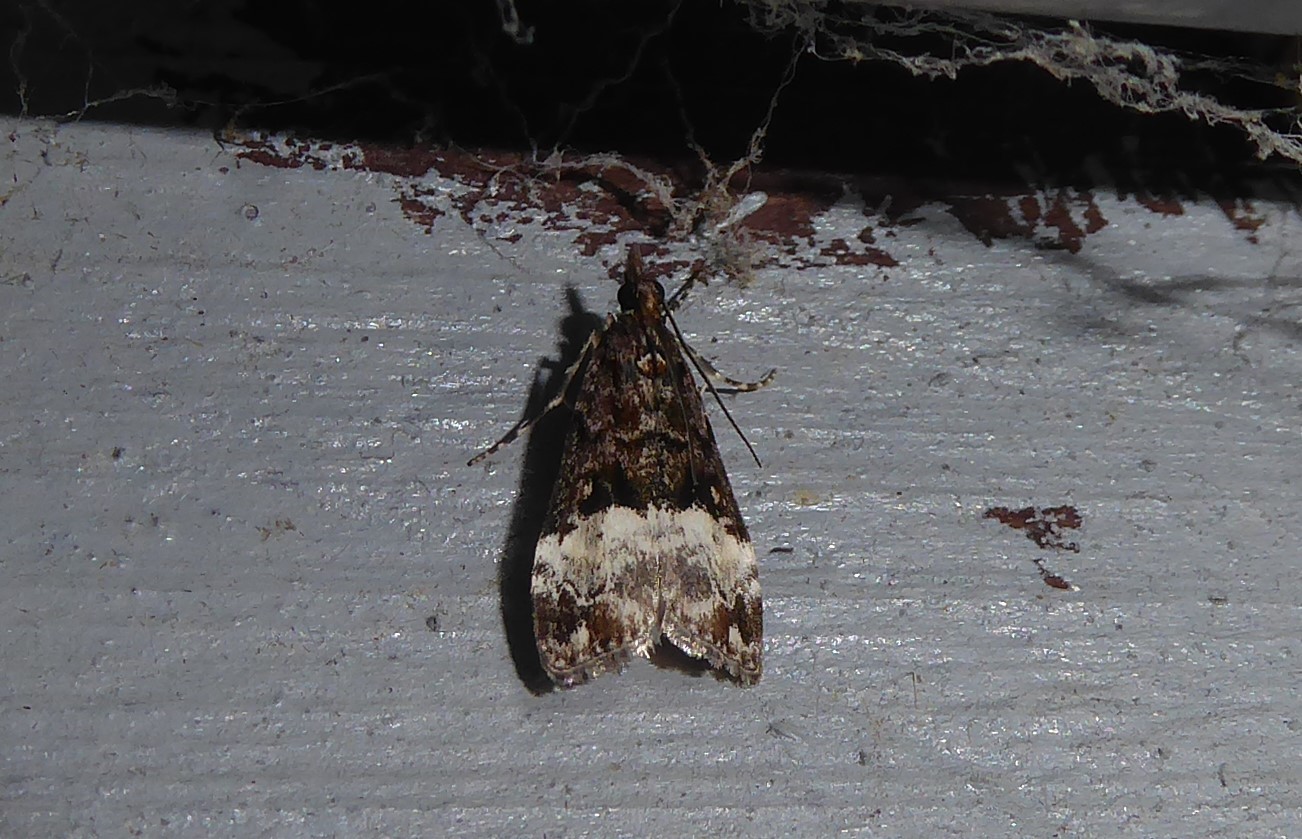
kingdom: Animalia
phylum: Arthropoda
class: Insecta
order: Lepidoptera
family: Crambidae
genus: Scoparia
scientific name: Scoparia minusculalis
